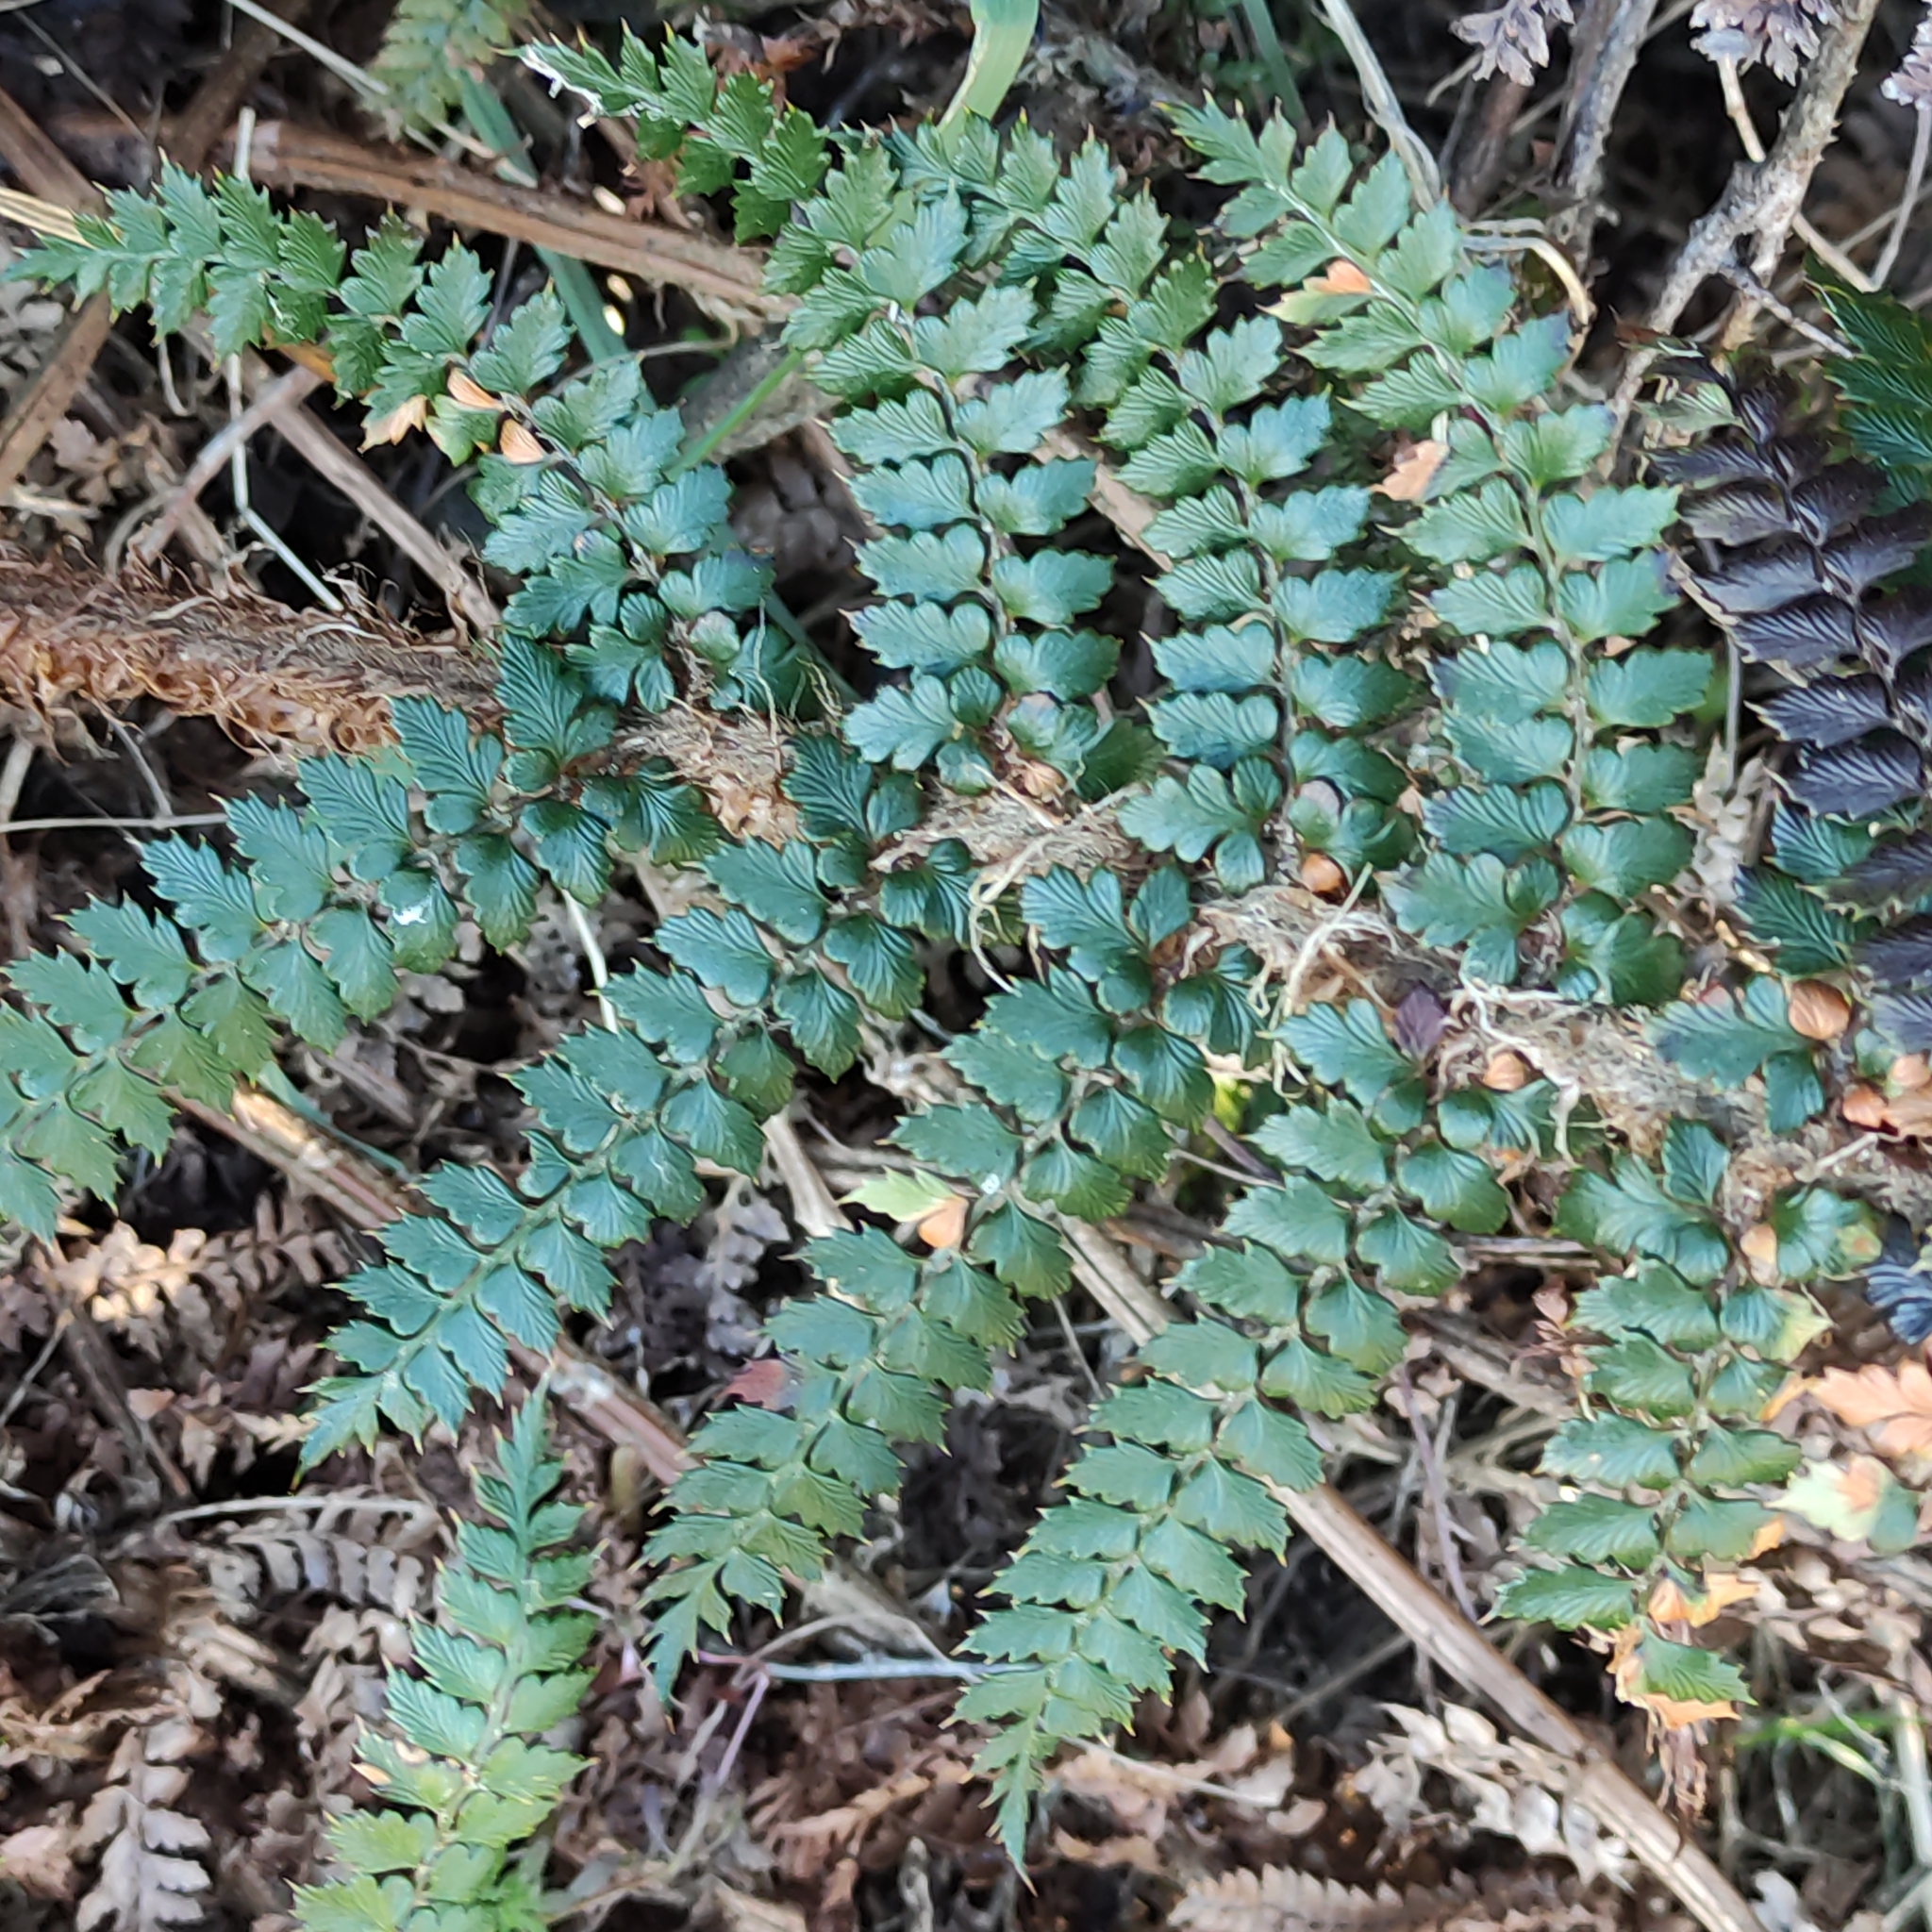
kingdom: Plantae
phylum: Tracheophyta
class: Polypodiopsida
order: Polypodiales
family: Dryopteridaceae
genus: Polystichum
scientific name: Polystichum vestitum
